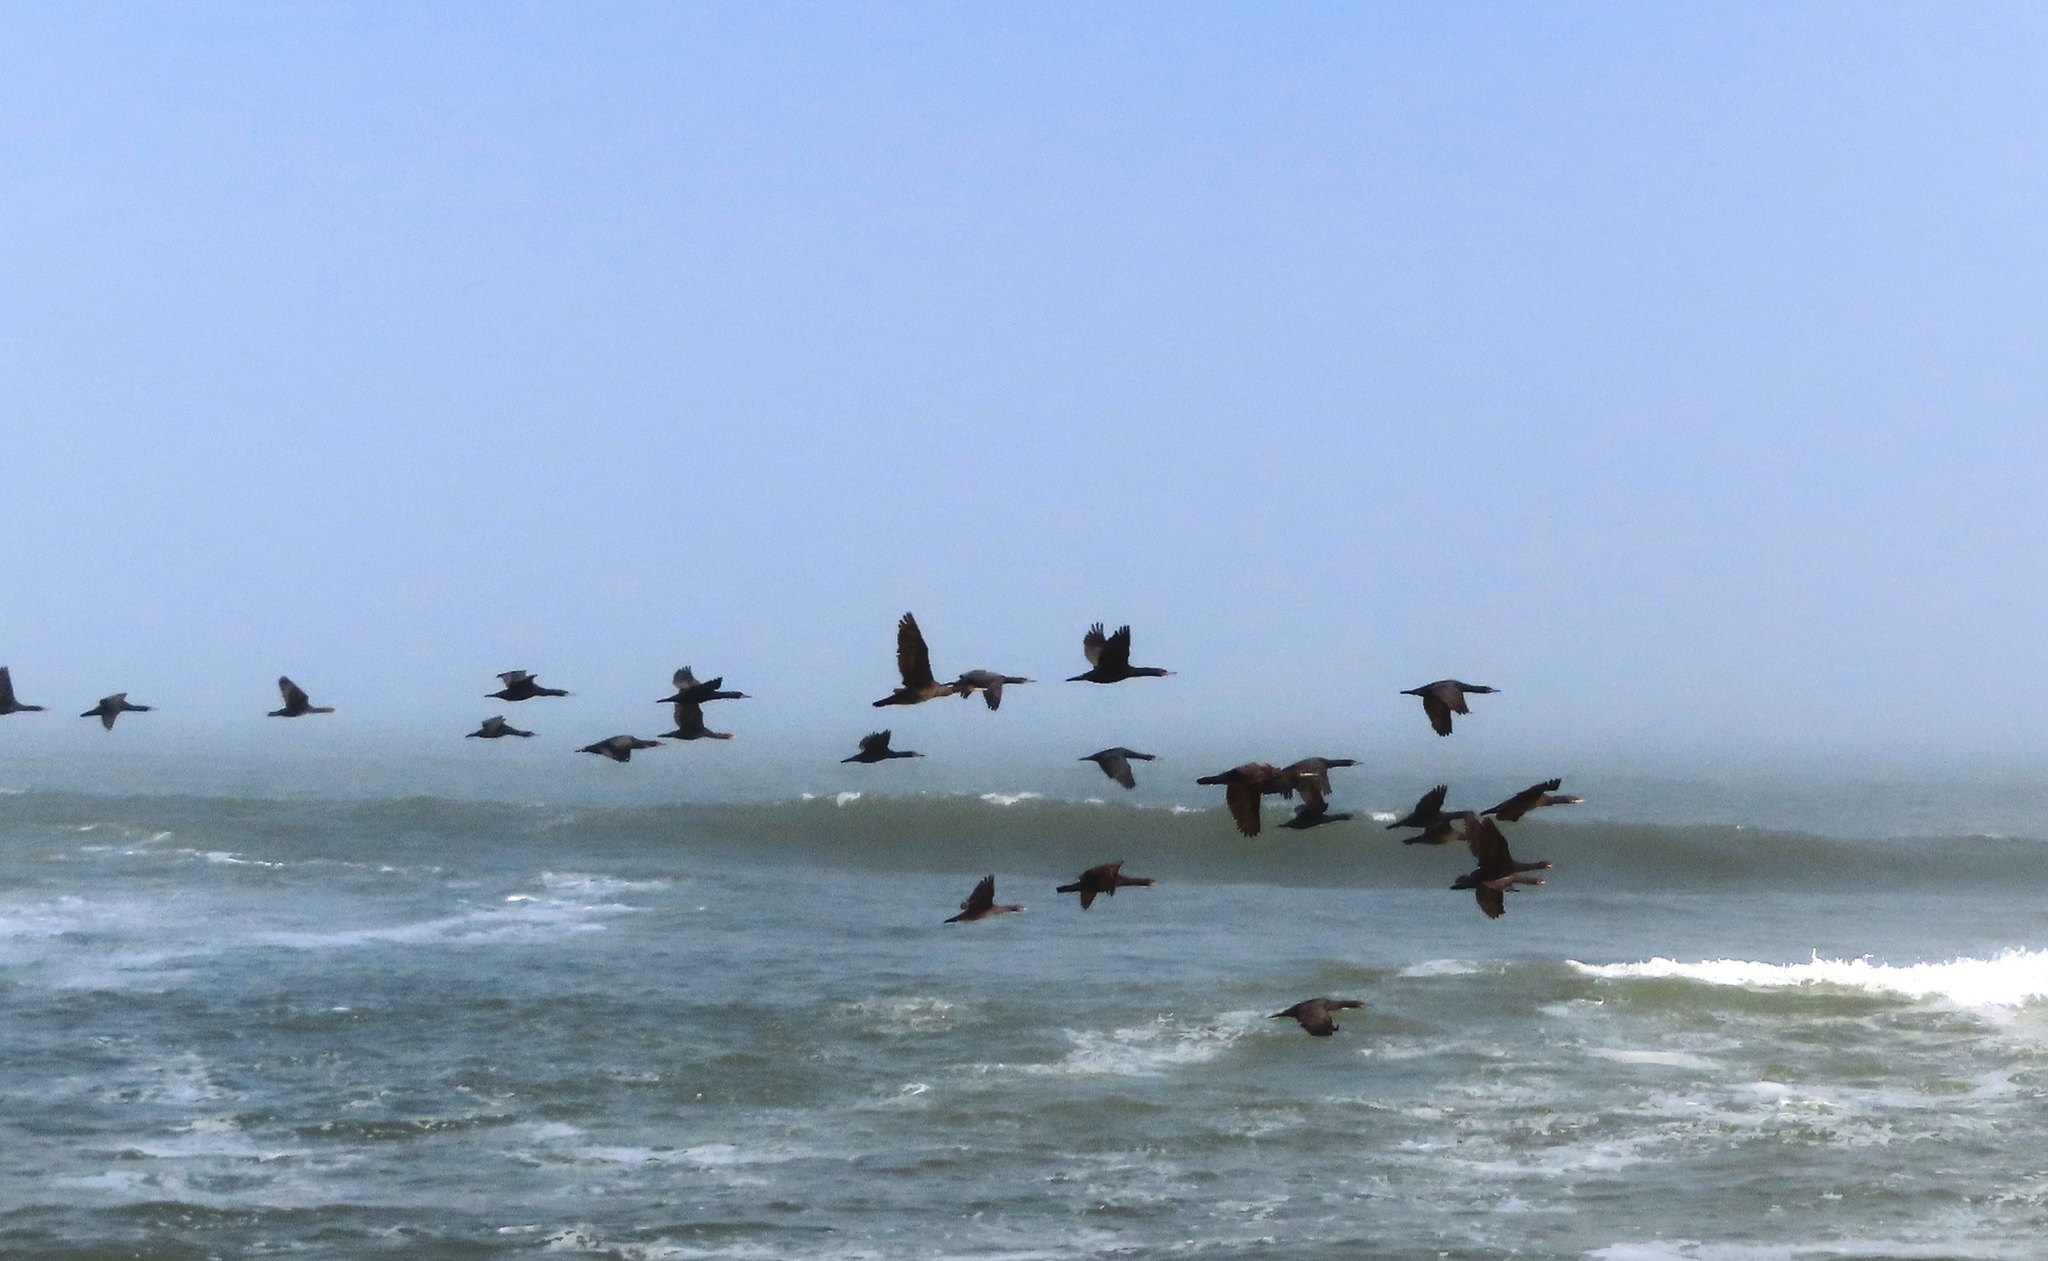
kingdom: Animalia
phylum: Chordata
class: Aves
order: Suliformes
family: Phalacrocoracidae
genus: Phalacrocorax
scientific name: Phalacrocorax capensis
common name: Cape cormorant
